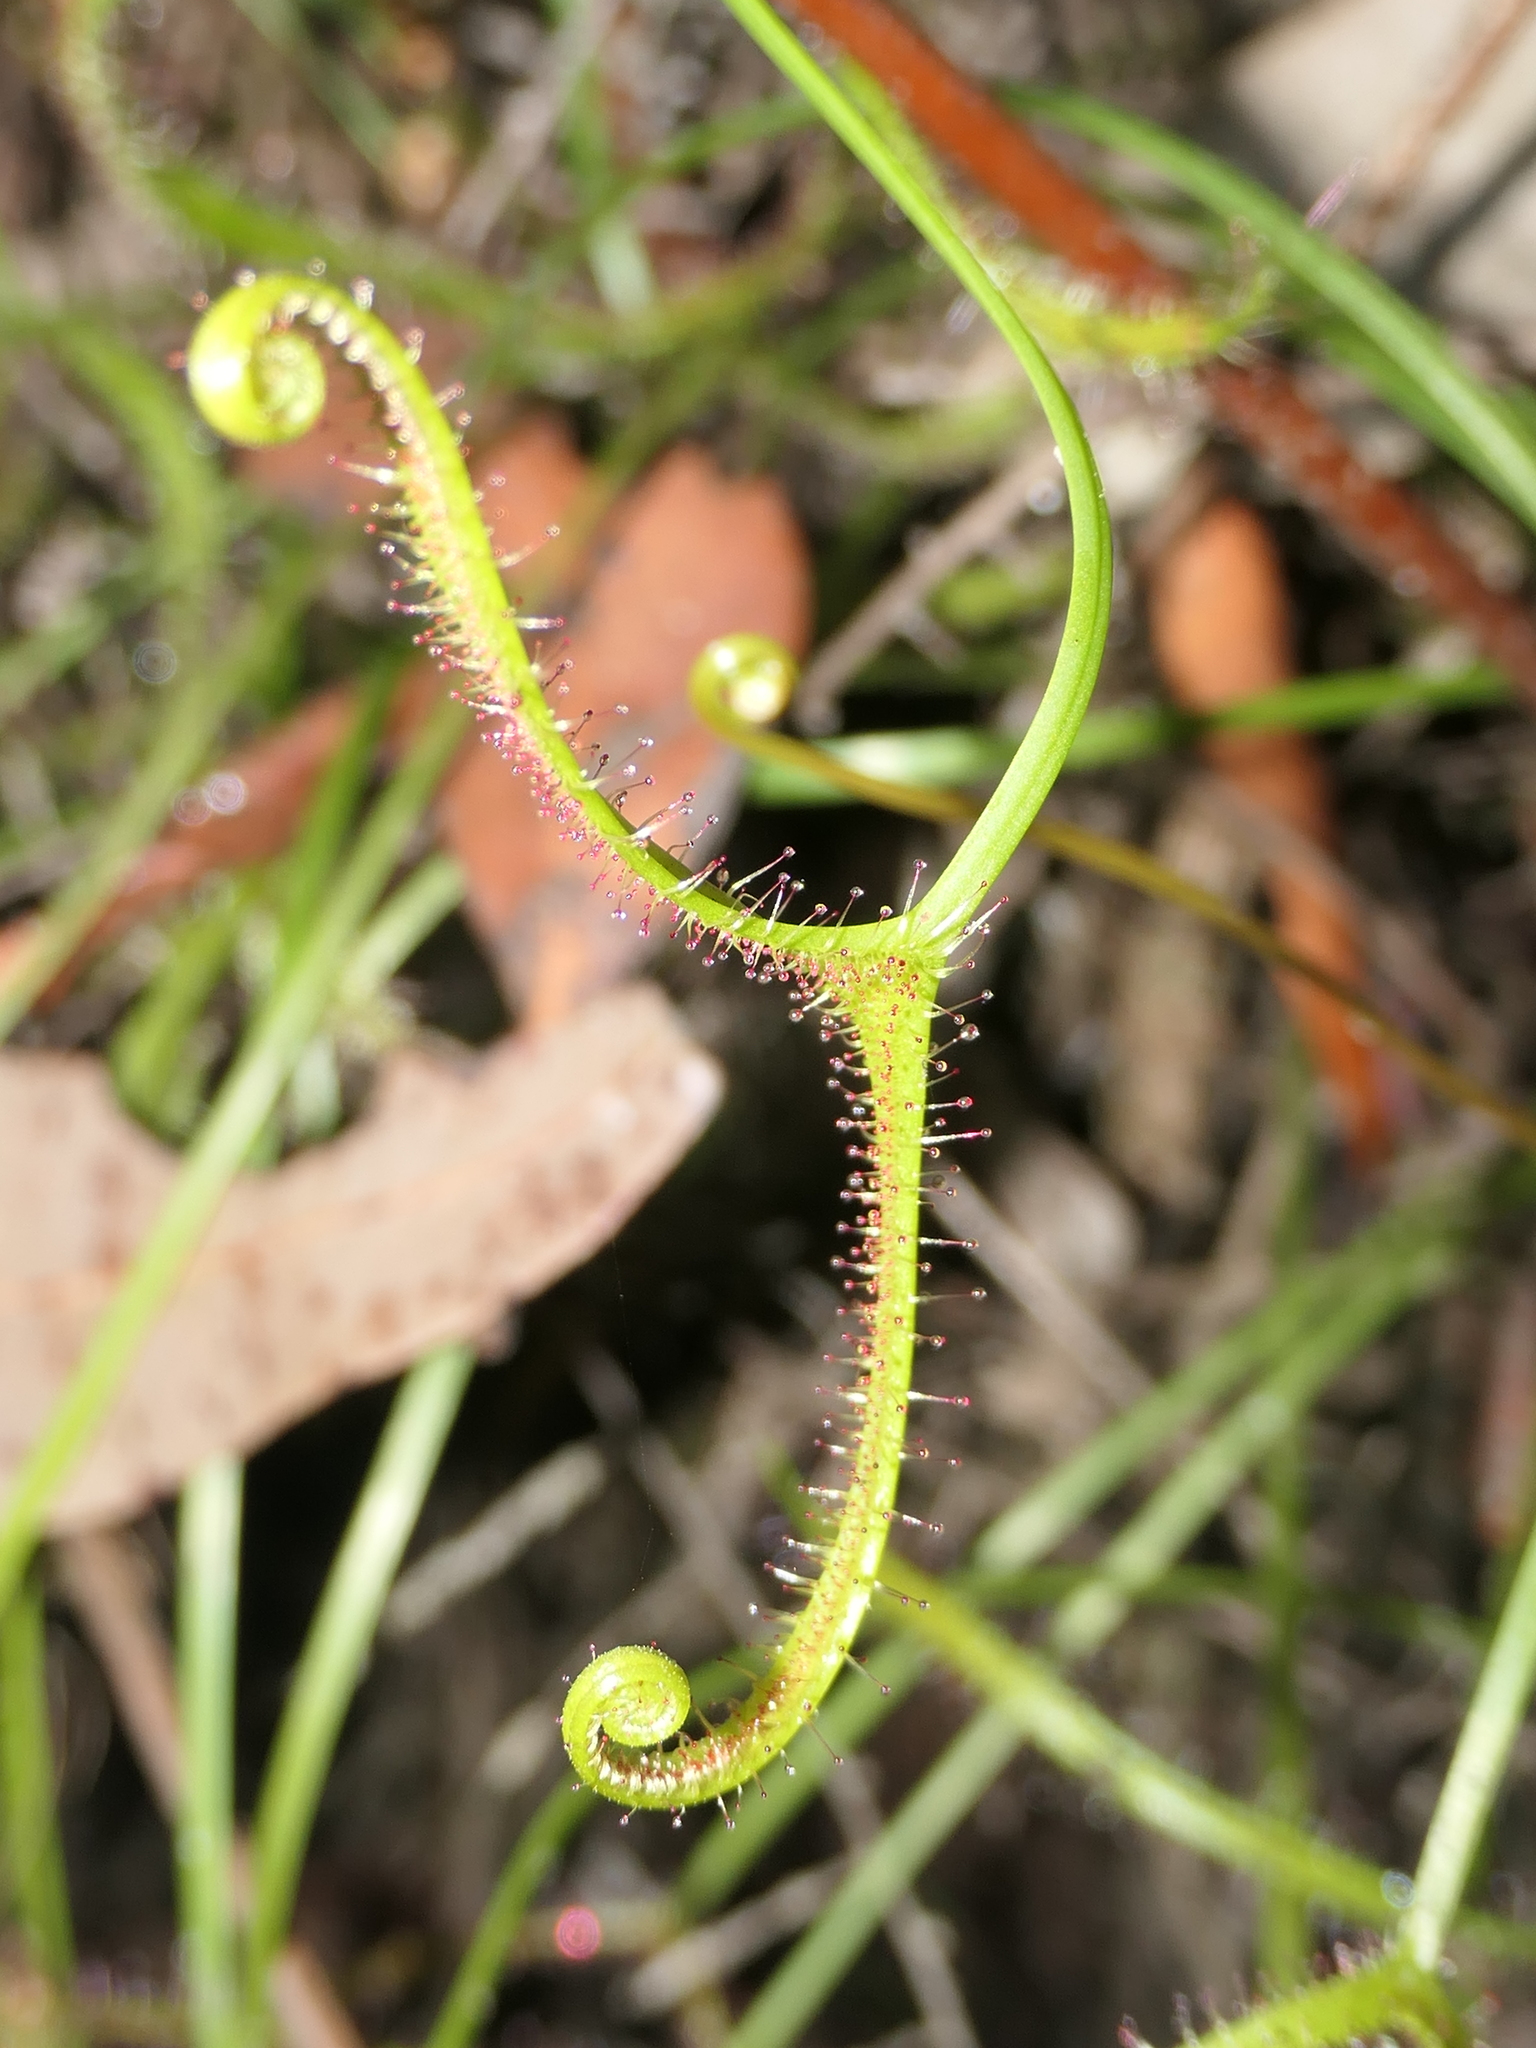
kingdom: Plantae
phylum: Tracheophyta
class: Magnoliopsida
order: Caryophyllales
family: Droseraceae
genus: Drosera
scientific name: Drosera binata
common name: Forked sundew
